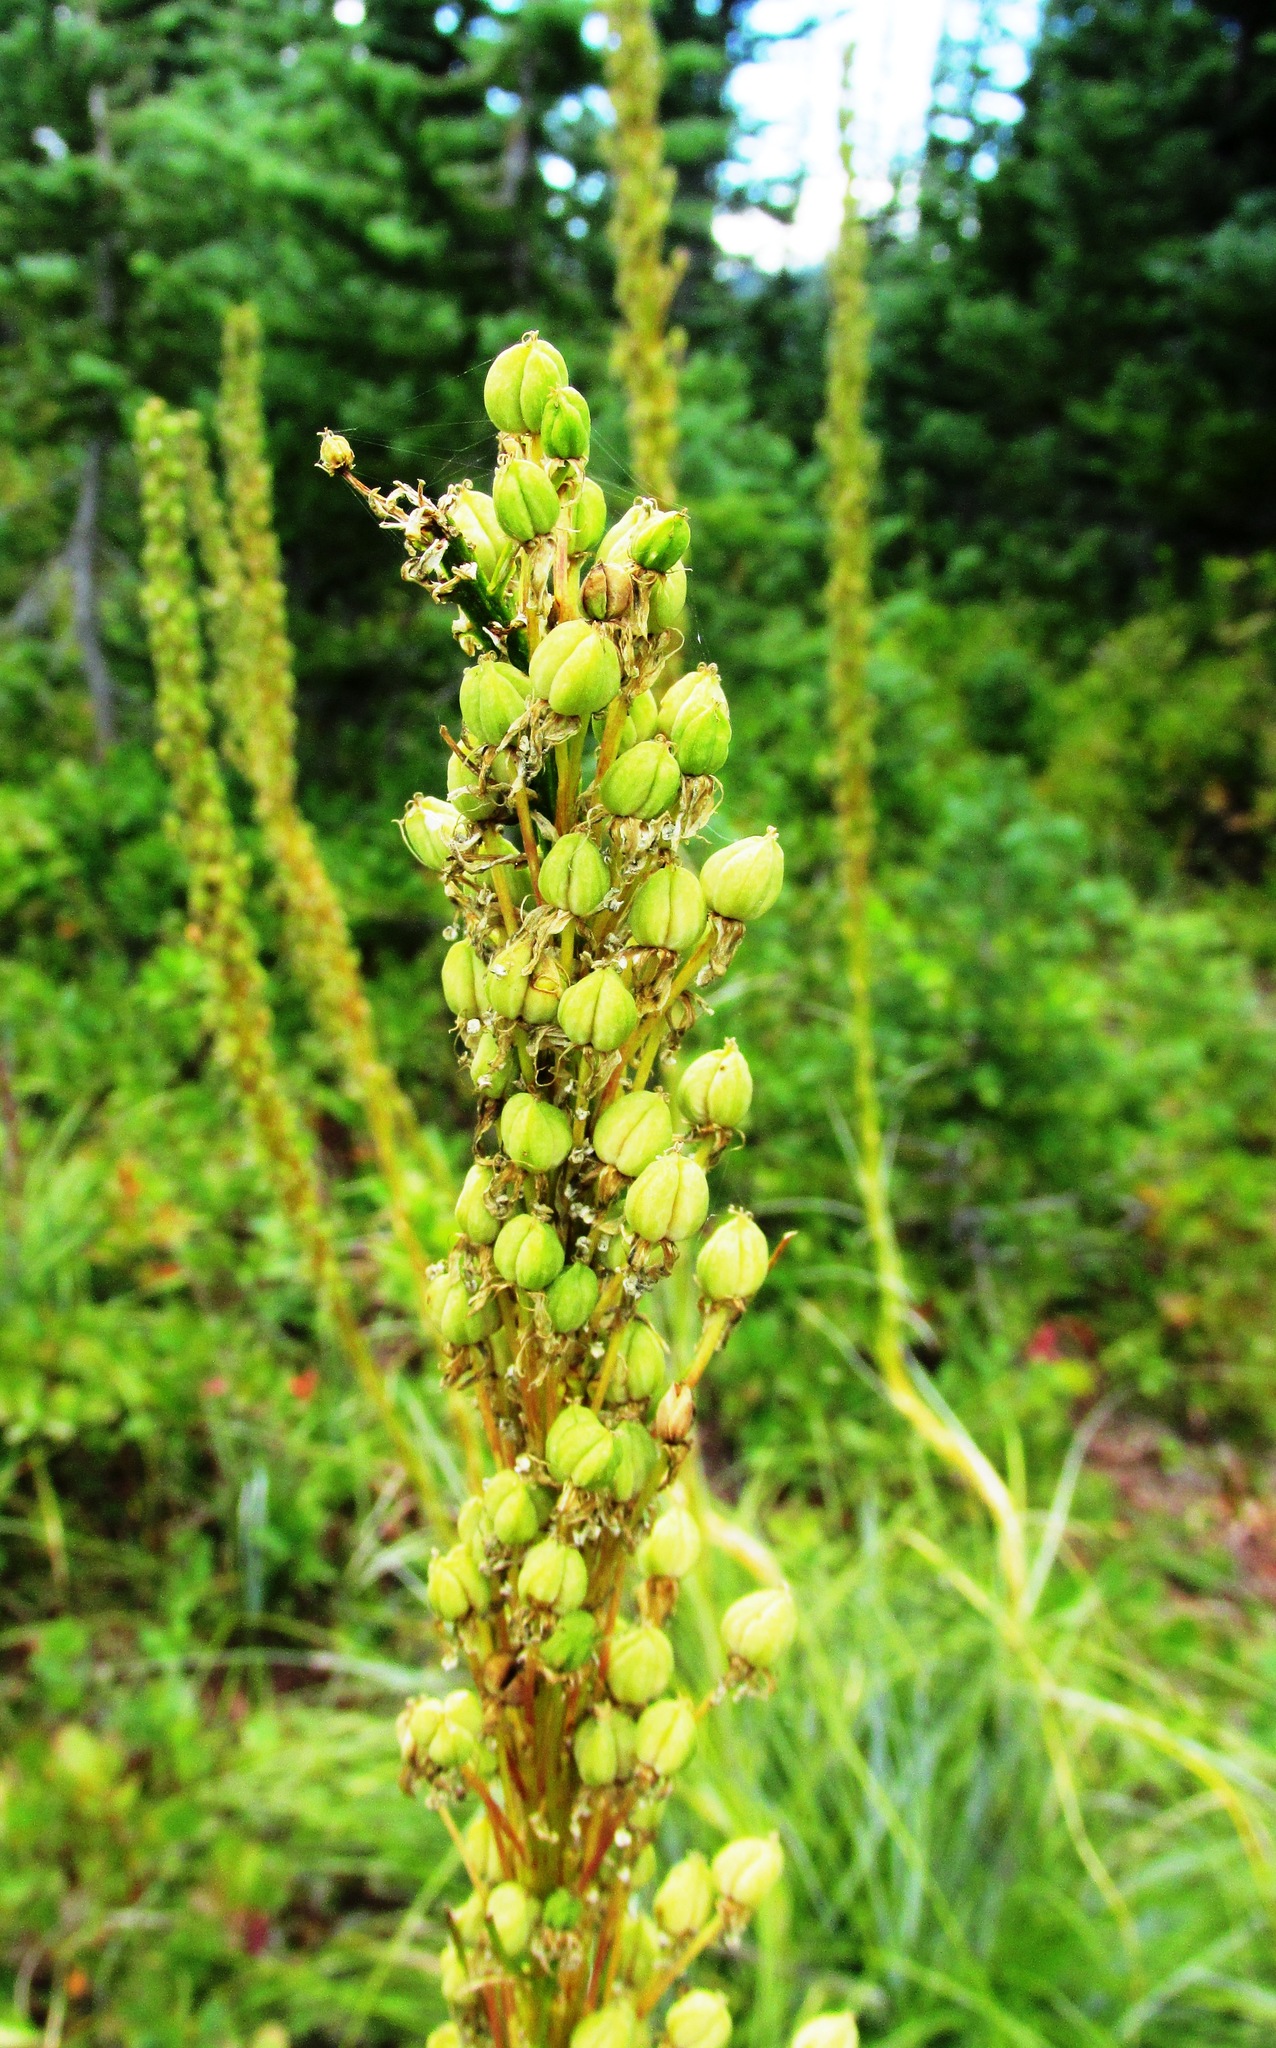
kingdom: Plantae
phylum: Tracheophyta
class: Liliopsida
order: Liliales
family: Melanthiaceae
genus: Xerophyllum
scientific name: Xerophyllum tenax
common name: Bear-grass
